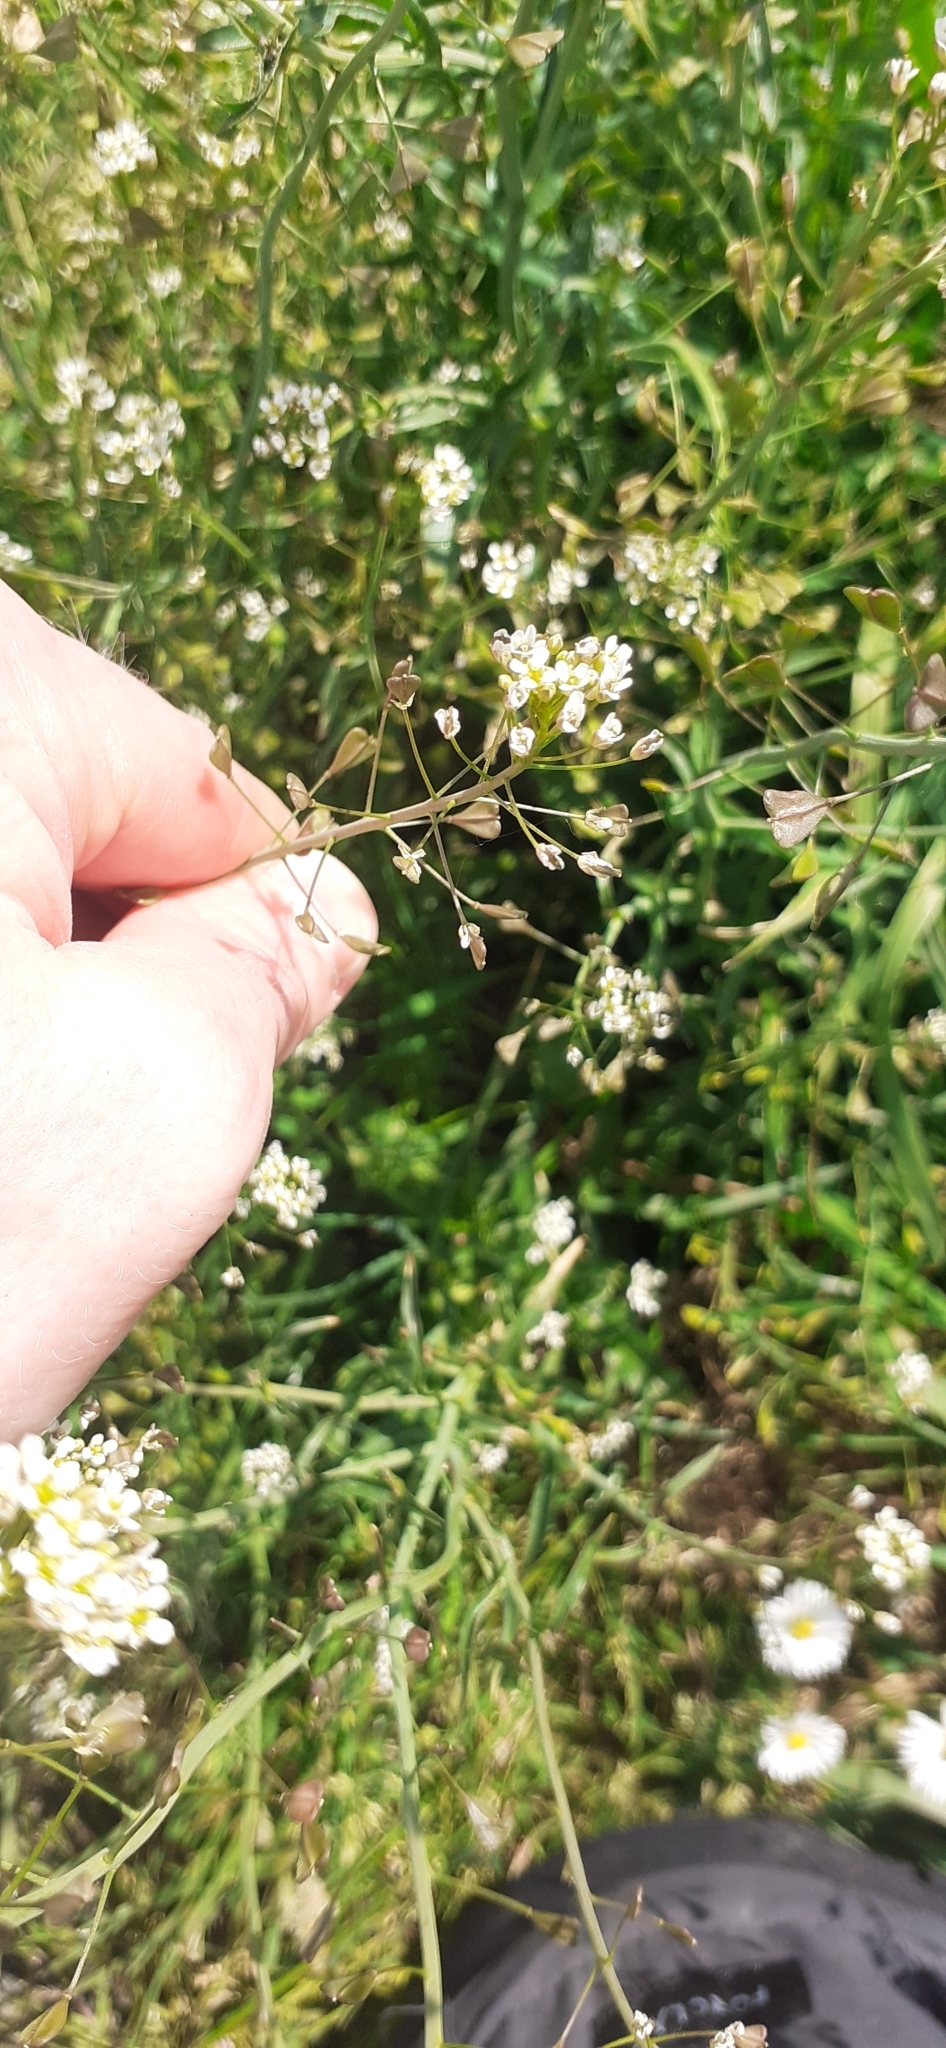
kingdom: Plantae
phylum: Tracheophyta
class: Magnoliopsida
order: Brassicales
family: Brassicaceae
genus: Capsella
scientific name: Capsella bursa-pastoris
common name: Shepherd's purse
